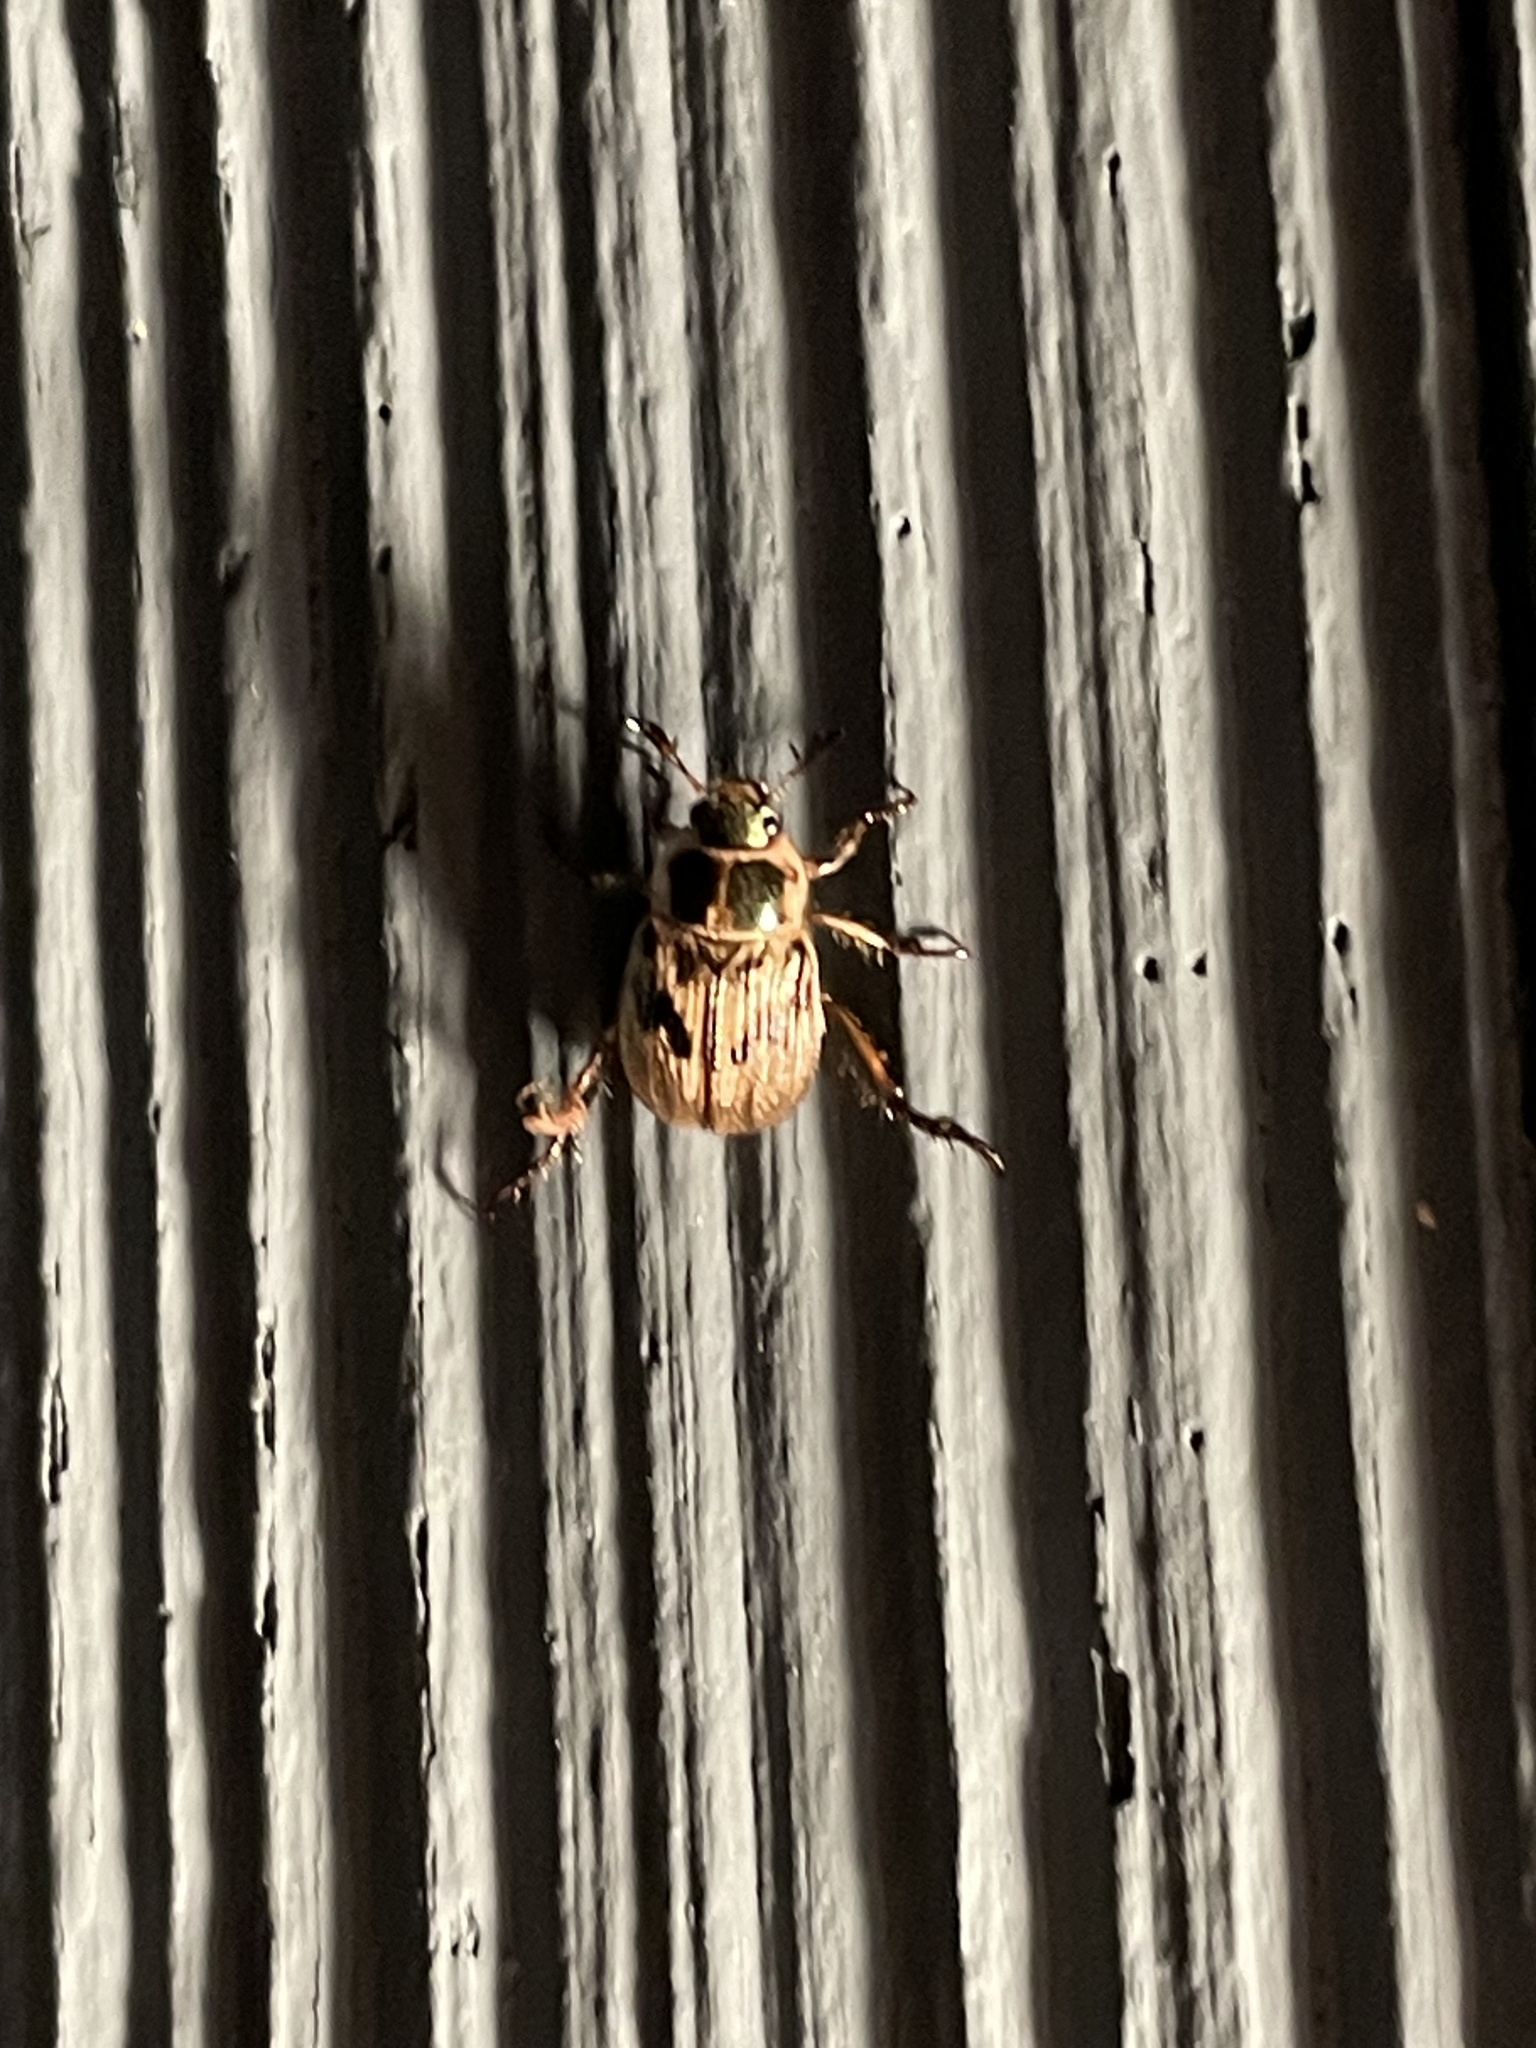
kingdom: Animalia
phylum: Arthropoda
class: Insecta
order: Coleoptera
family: Scarabaeidae
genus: Exomala
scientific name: Exomala orientalis
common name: Oriental beetle
